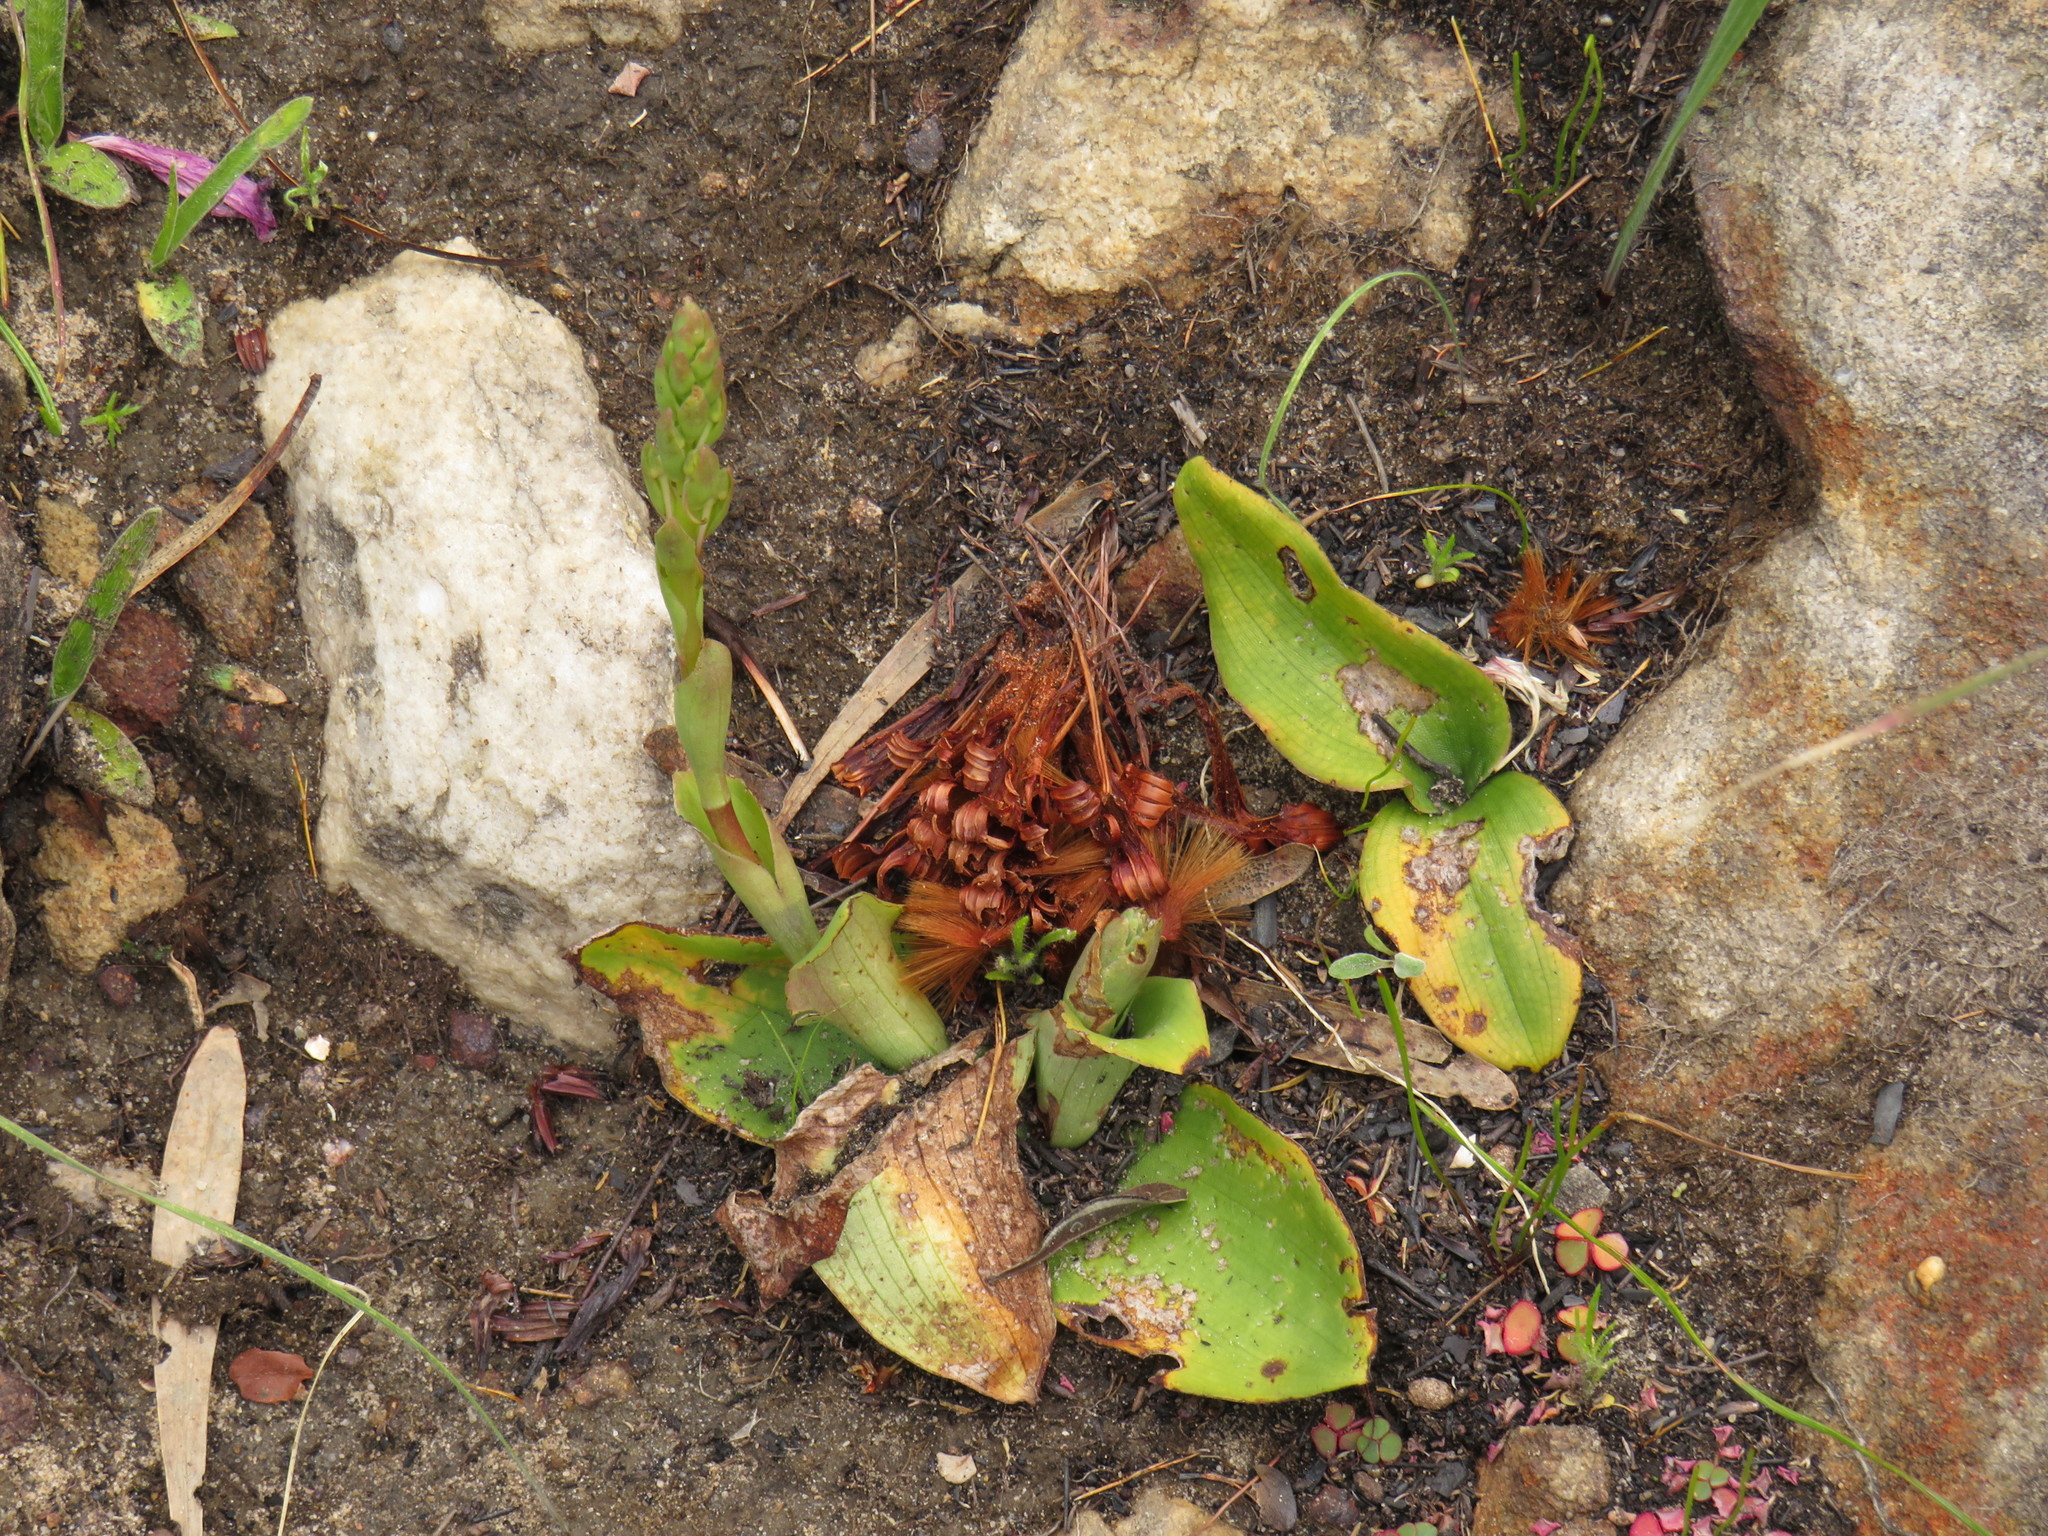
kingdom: Plantae
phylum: Tracheophyta
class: Liliopsida
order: Asparagales
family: Orchidaceae
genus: Satyrium
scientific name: Satyrium humile
